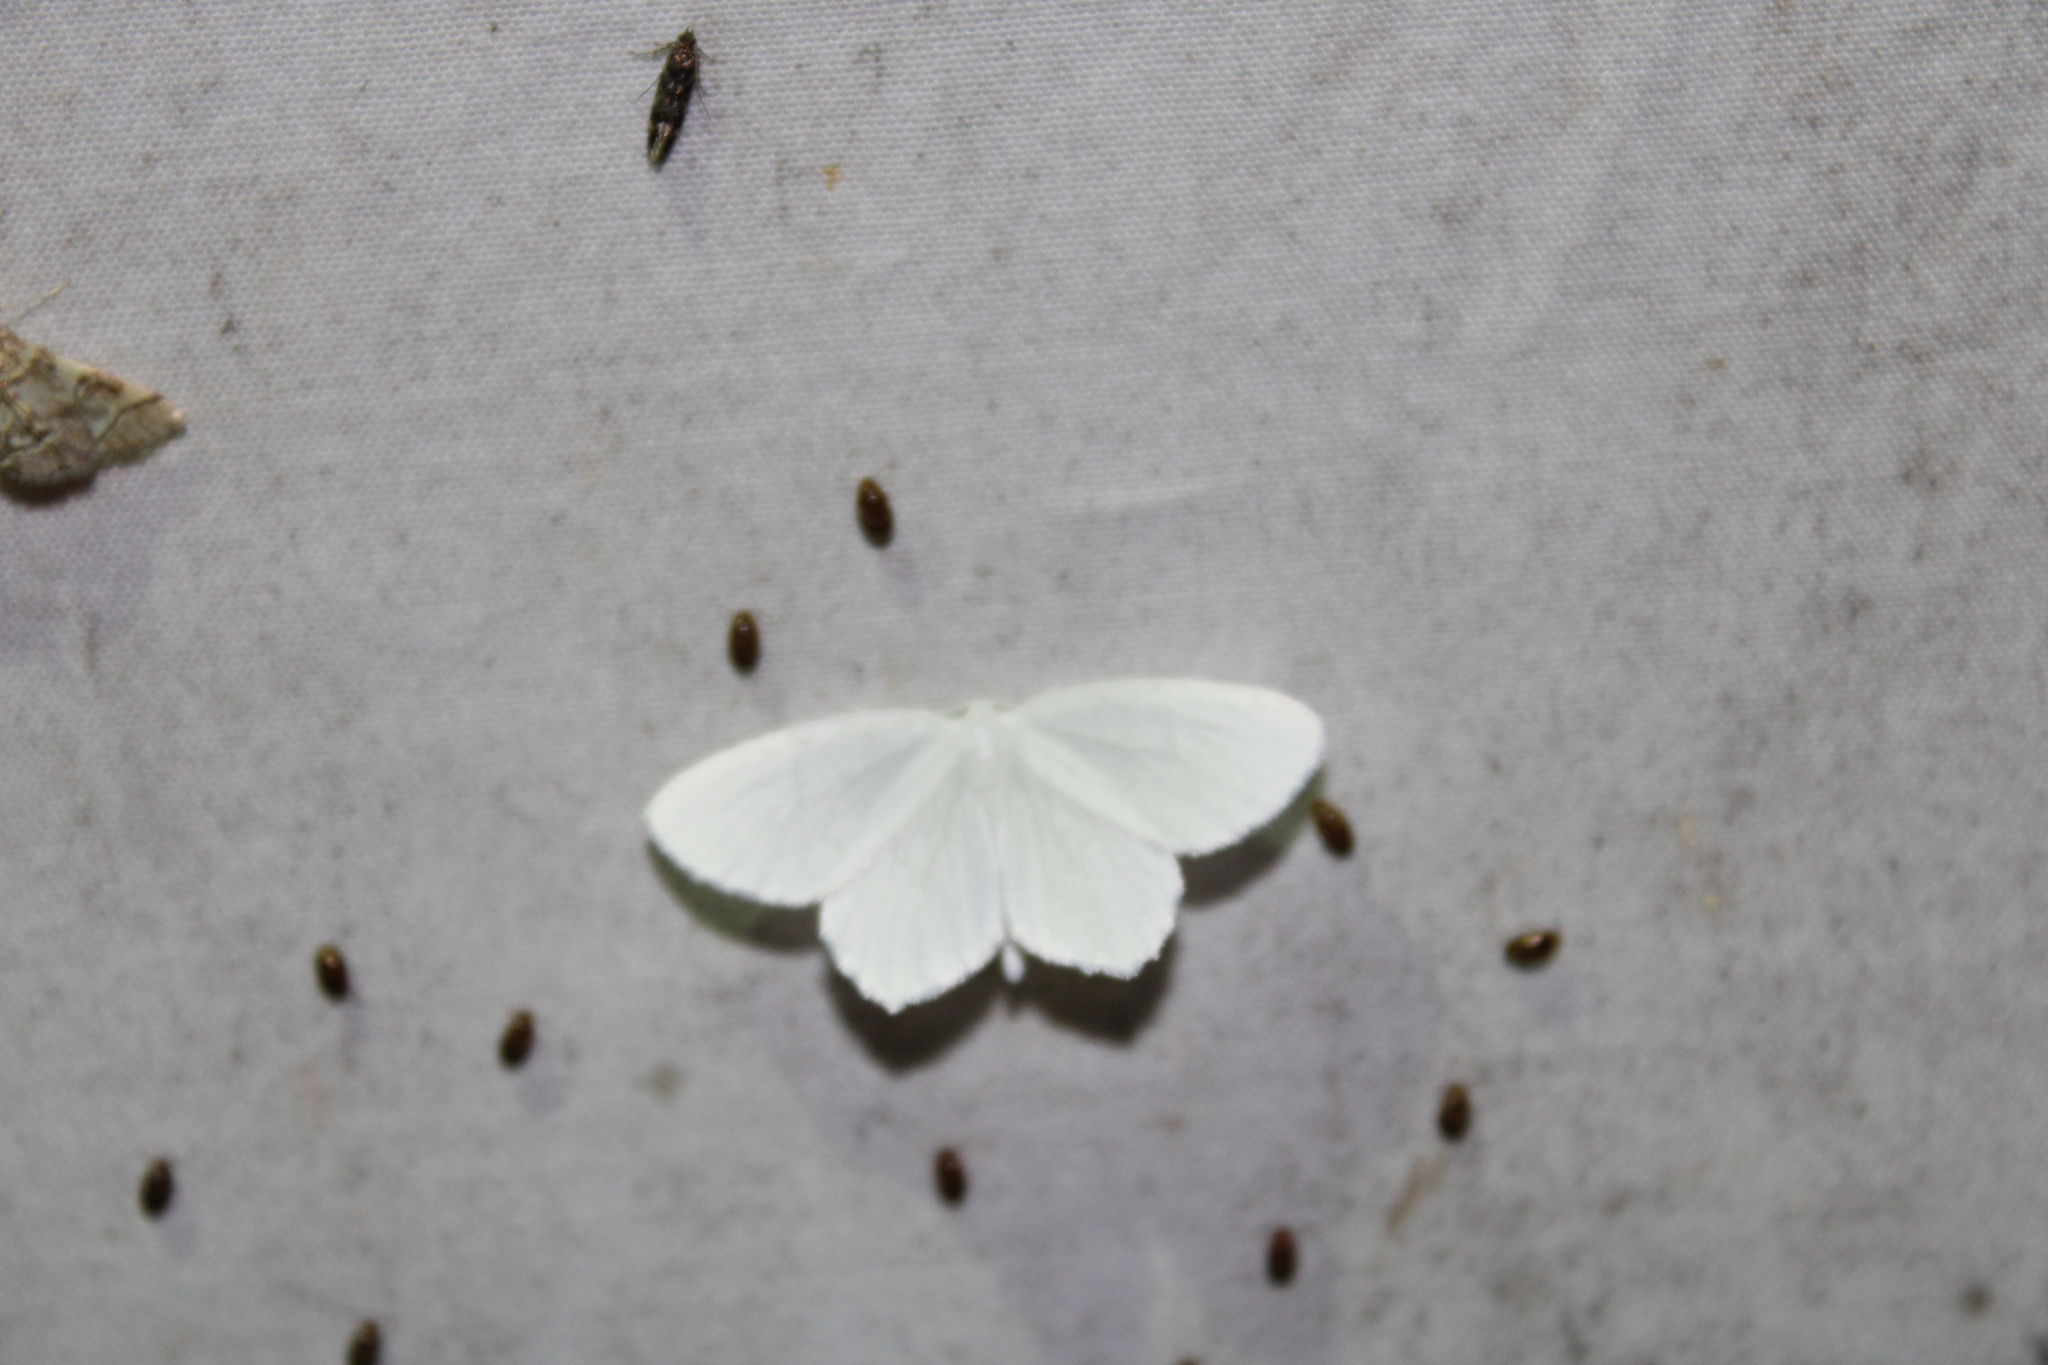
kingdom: Animalia
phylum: Arthropoda
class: Insecta
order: Lepidoptera
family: Geometridae
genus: Eugonobapta
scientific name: Eugonobapta nivosaria
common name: Snowy geometer
